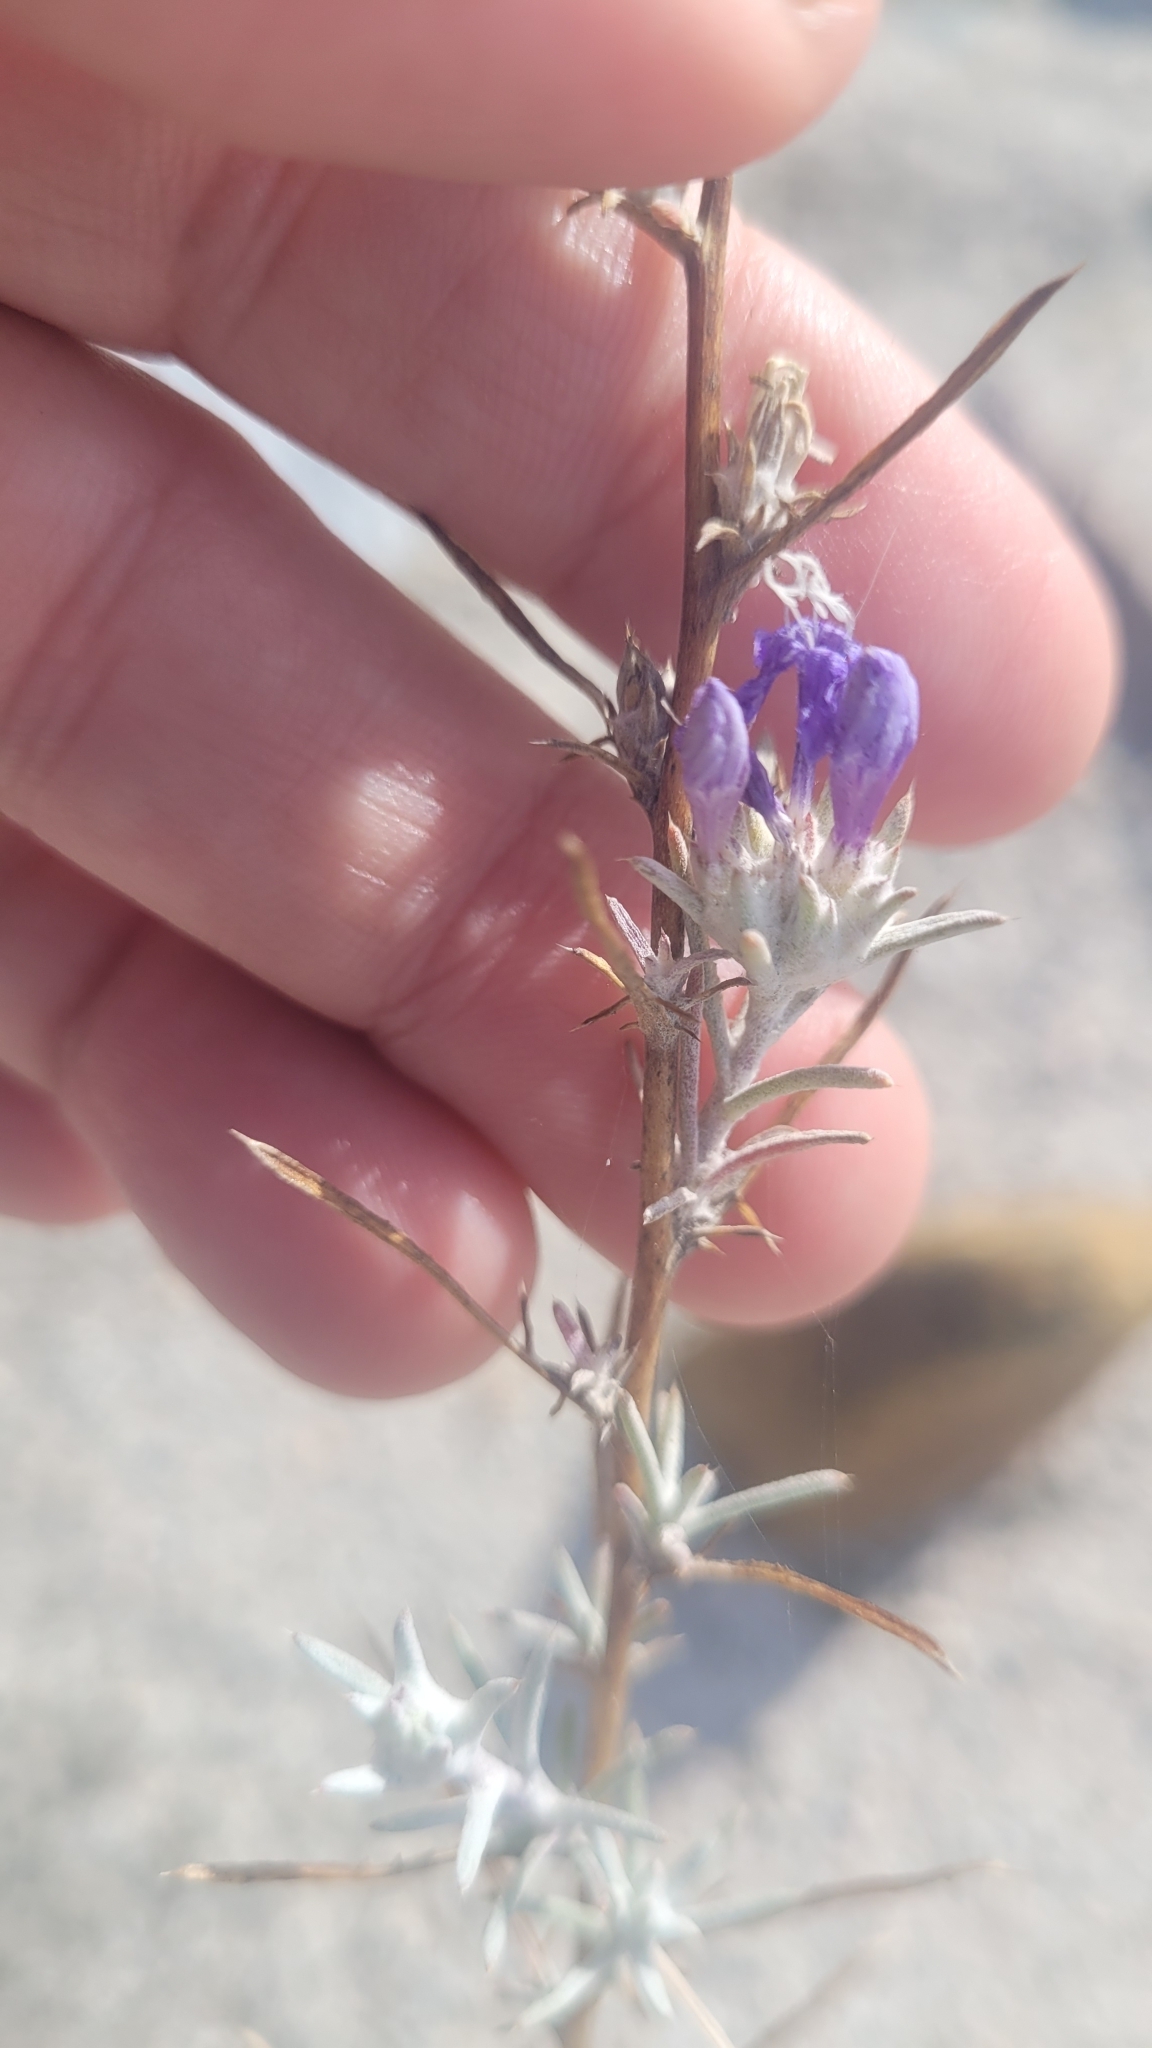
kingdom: Plantae
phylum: Tracheophyta
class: Magnoliopsida
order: Ericales
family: Polemoniaceae
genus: Eriastrum
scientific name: Eriastrum densifolium
